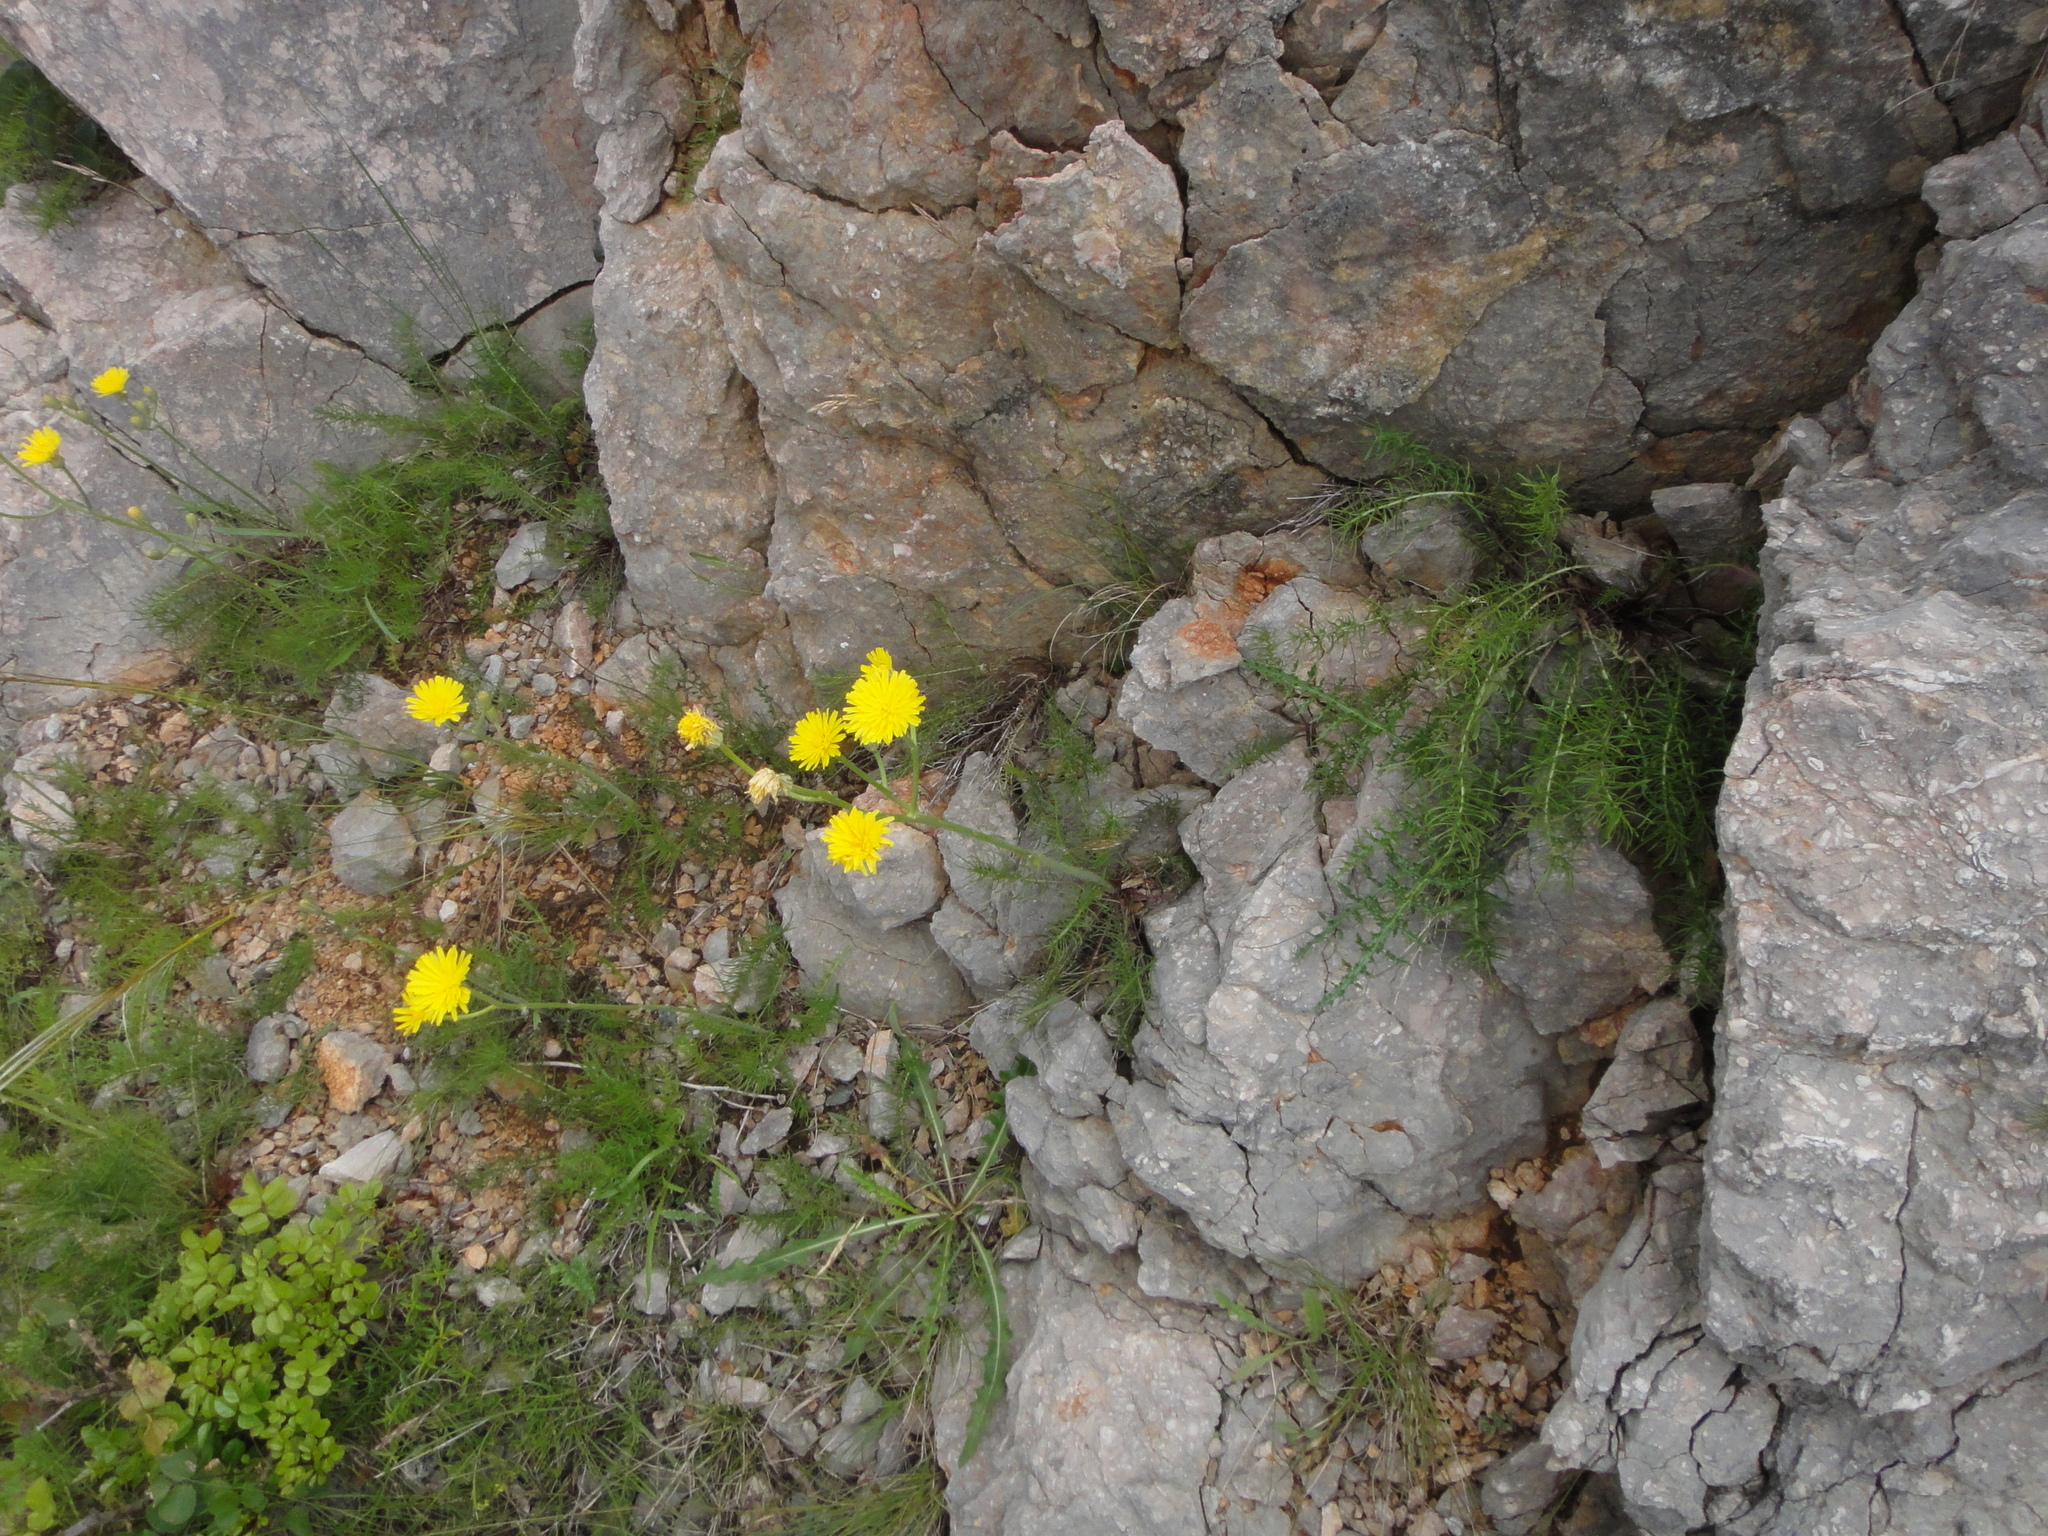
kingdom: Plantae
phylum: Tracheophyta
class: Magnoliopsida
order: Asterales
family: Asteraceae
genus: Crepis
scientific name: Crepis chondrilloides
